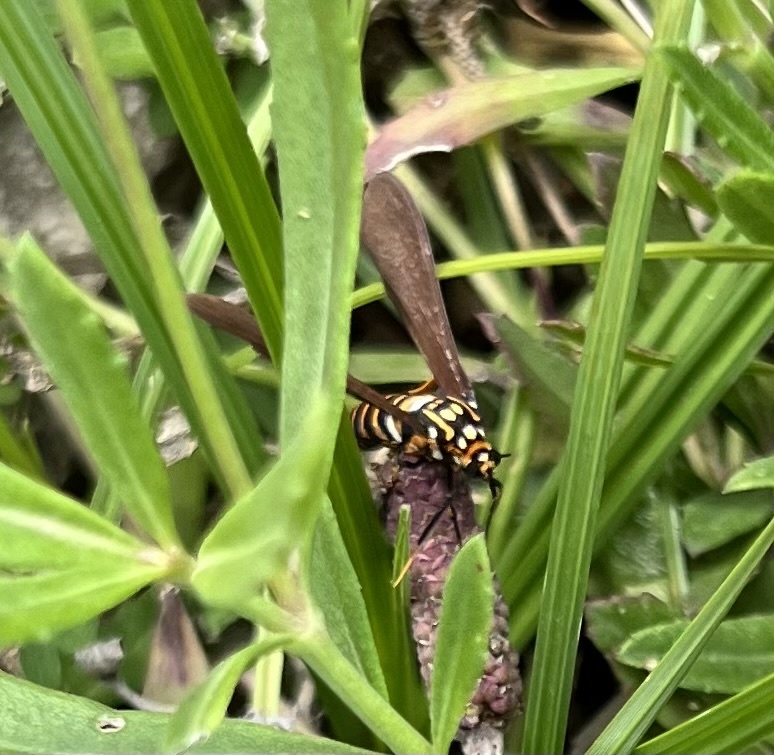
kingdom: Animalia
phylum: Arthropoda
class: Insecta
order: Lepidoptera
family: Erebidae
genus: Horama
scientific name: Horama panthalon
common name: Texas wasp moth
